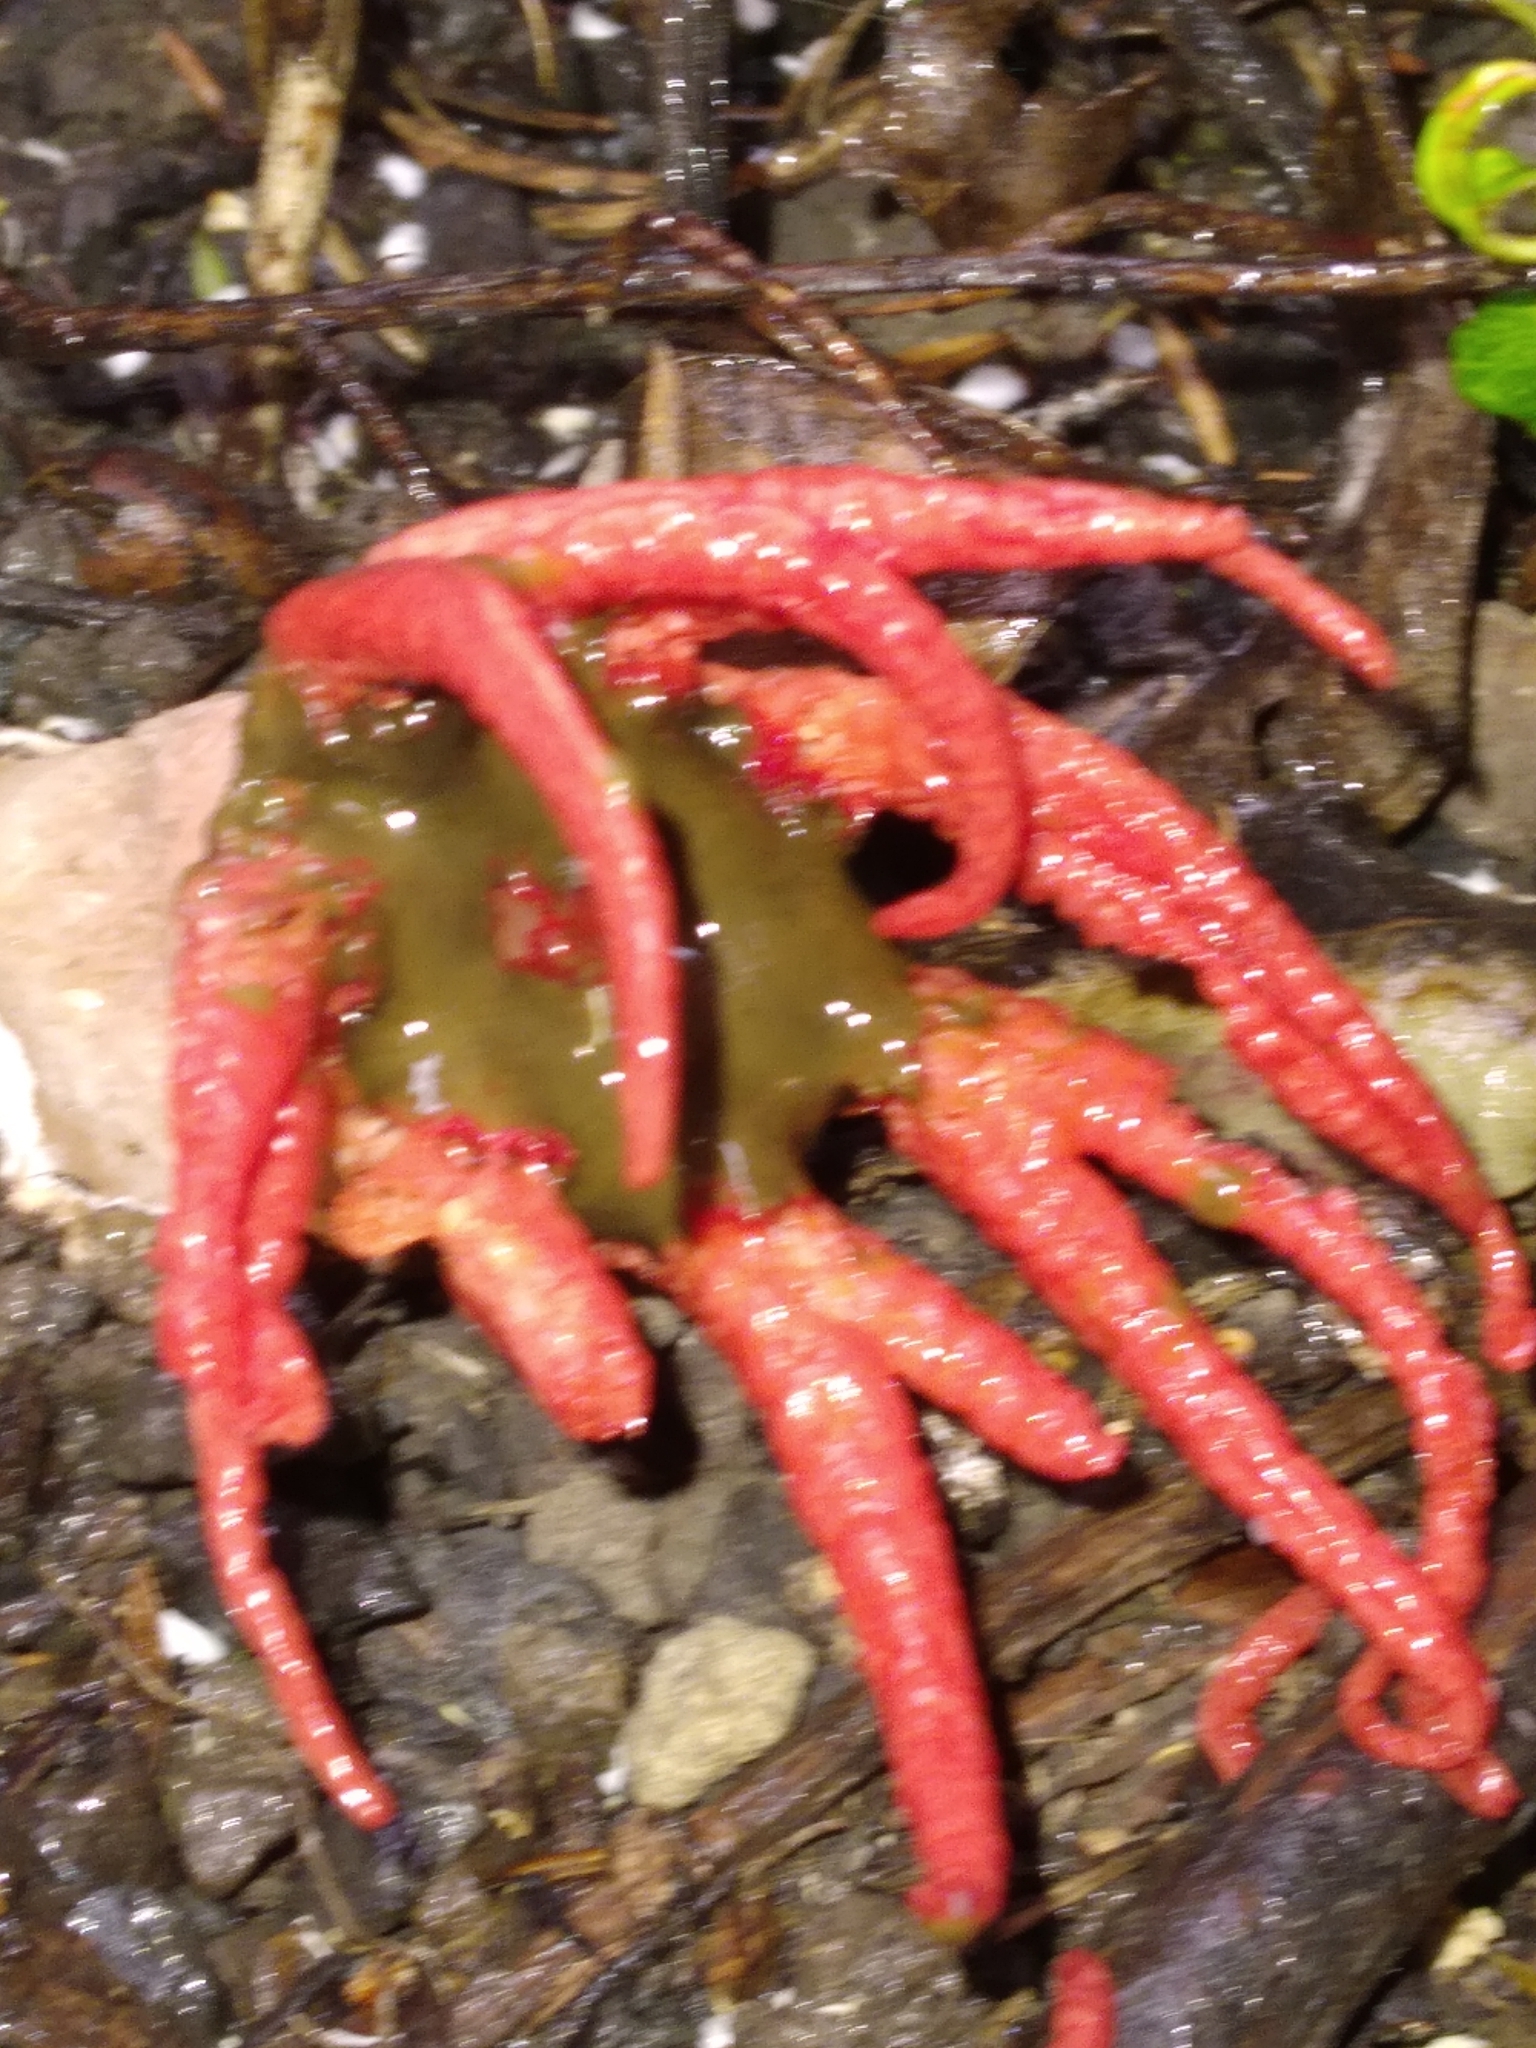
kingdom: Fungi
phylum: Basidiomycota
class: Agaricomycetes
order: Phallales
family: Phallaceae
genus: Aseroe
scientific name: Aseroe rubra
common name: Starfish fungus
